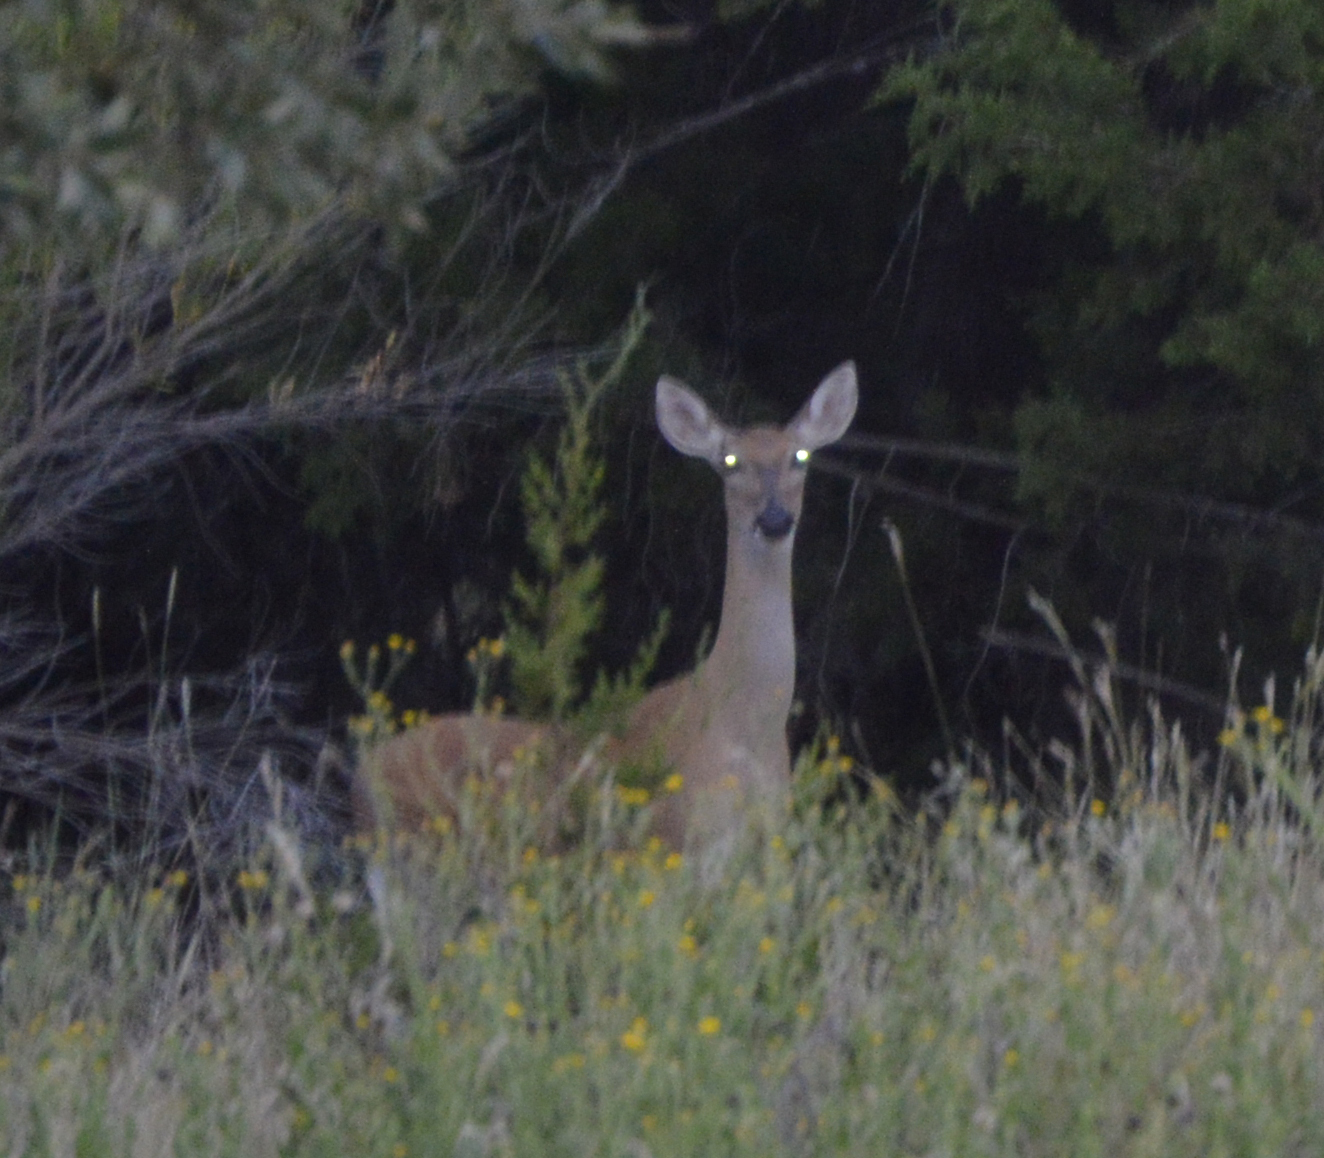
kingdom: Animalia
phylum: Chordata
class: Mammalia
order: Artiodactyla
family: Cervidae
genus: Odocoileus
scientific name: Odocoileus virginianus
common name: White-tailed deer
